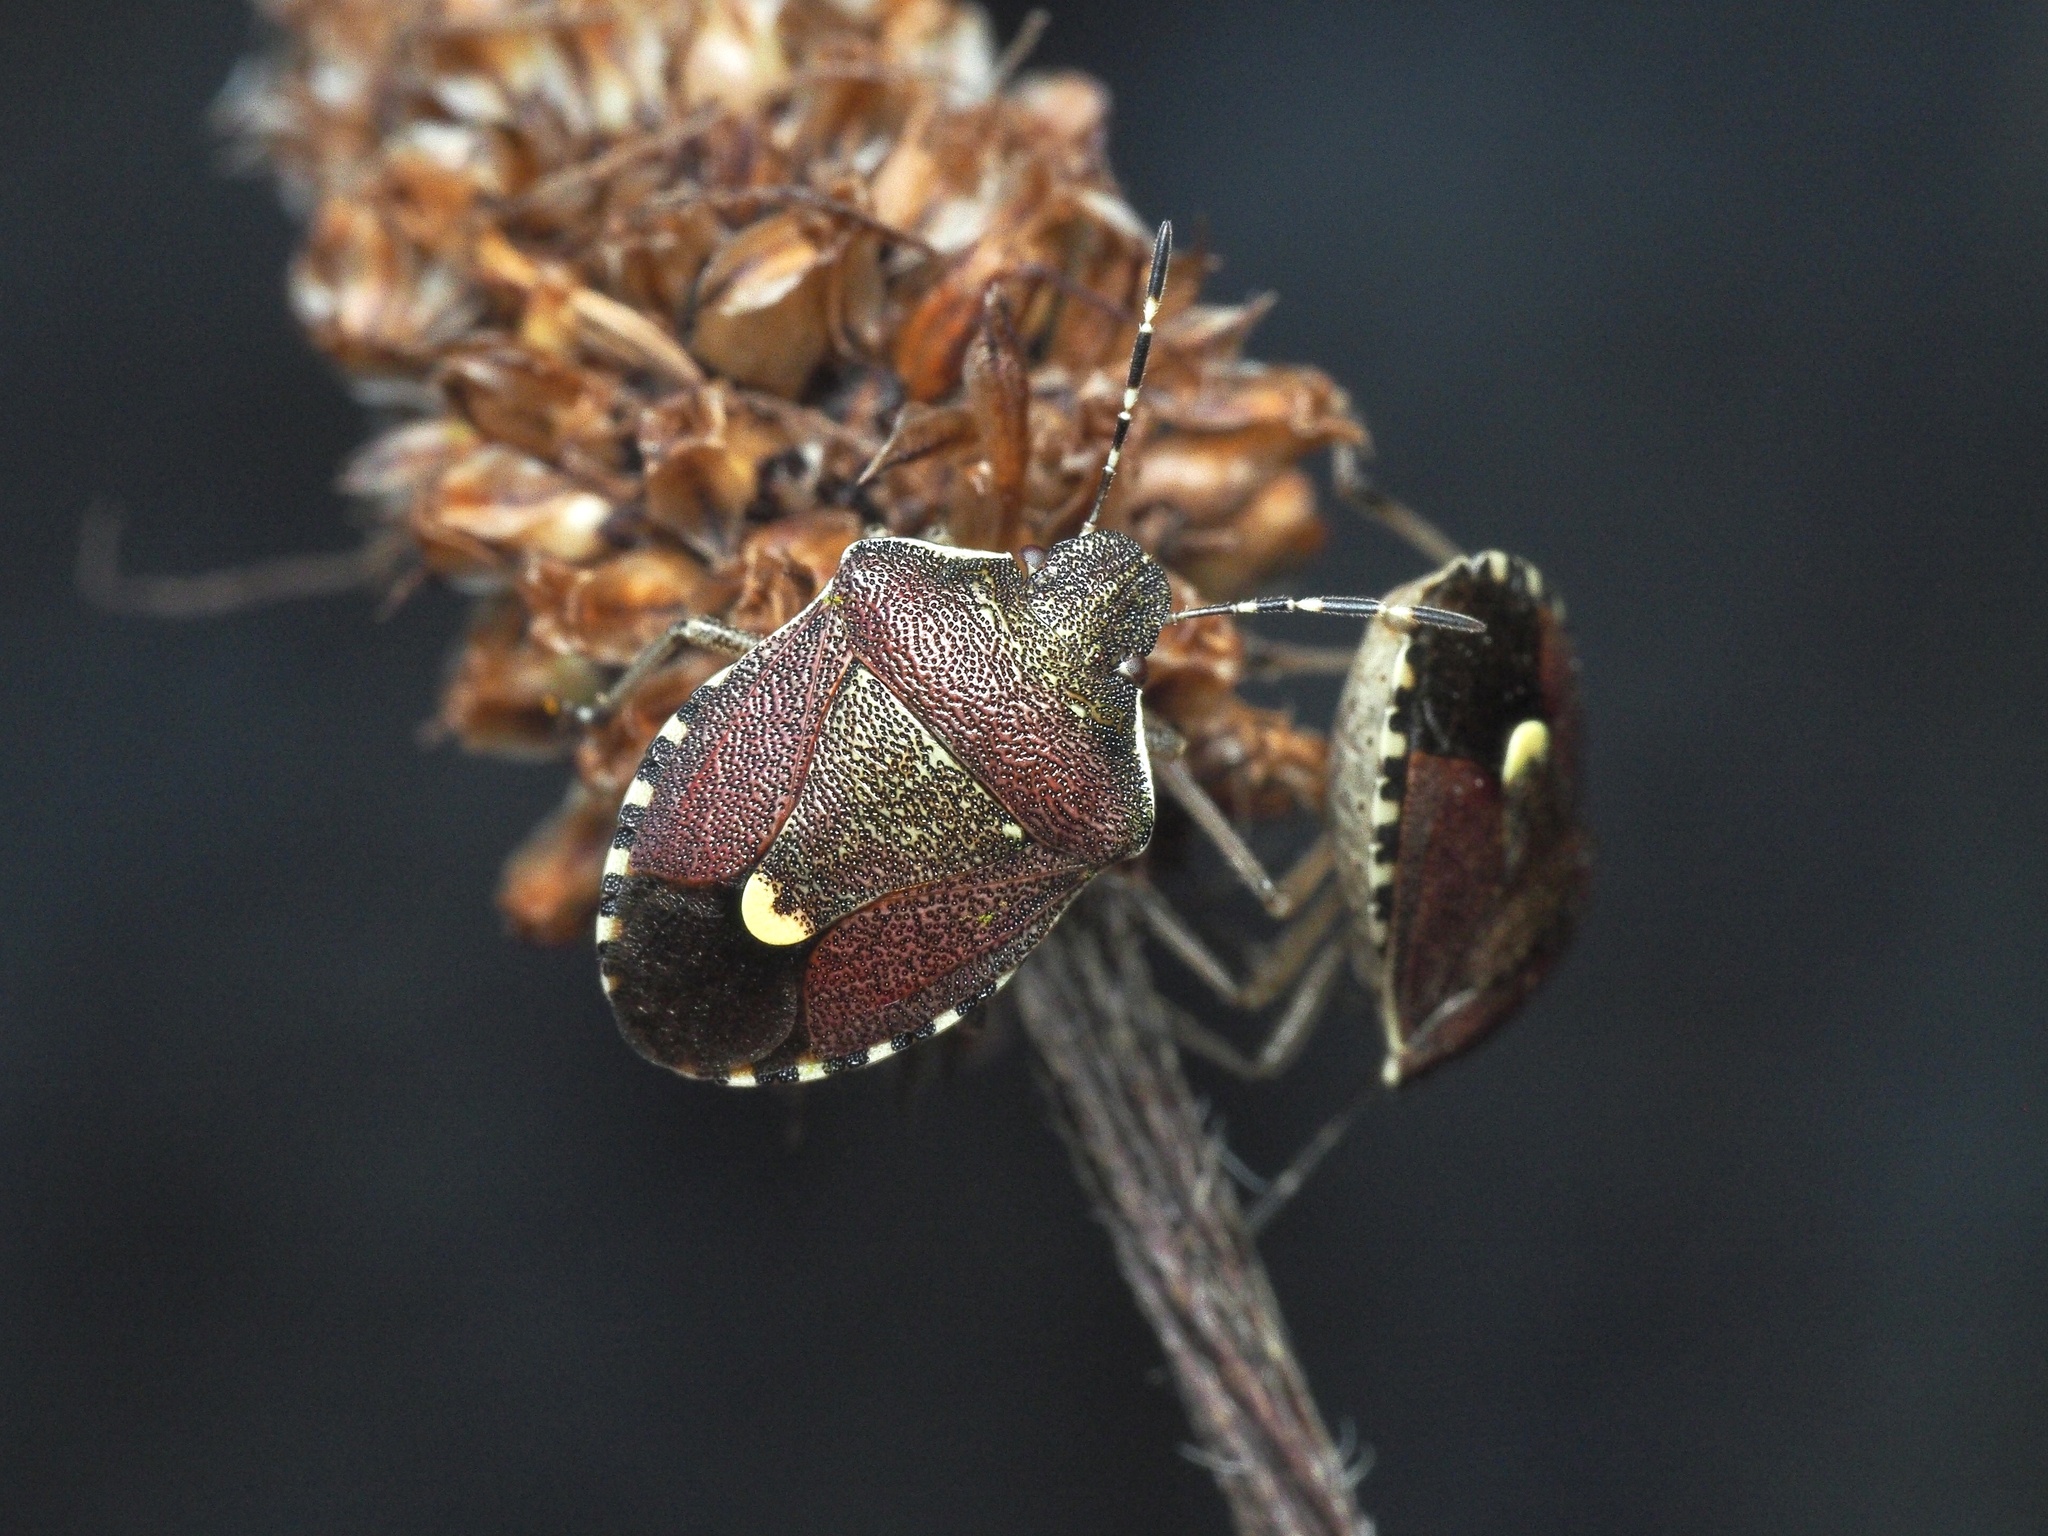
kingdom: Animalia
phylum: Arthropoda
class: Insecta
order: Hemiptera
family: Pentatomidae
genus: Holcostethus
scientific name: Holcostethus sphacelatus
